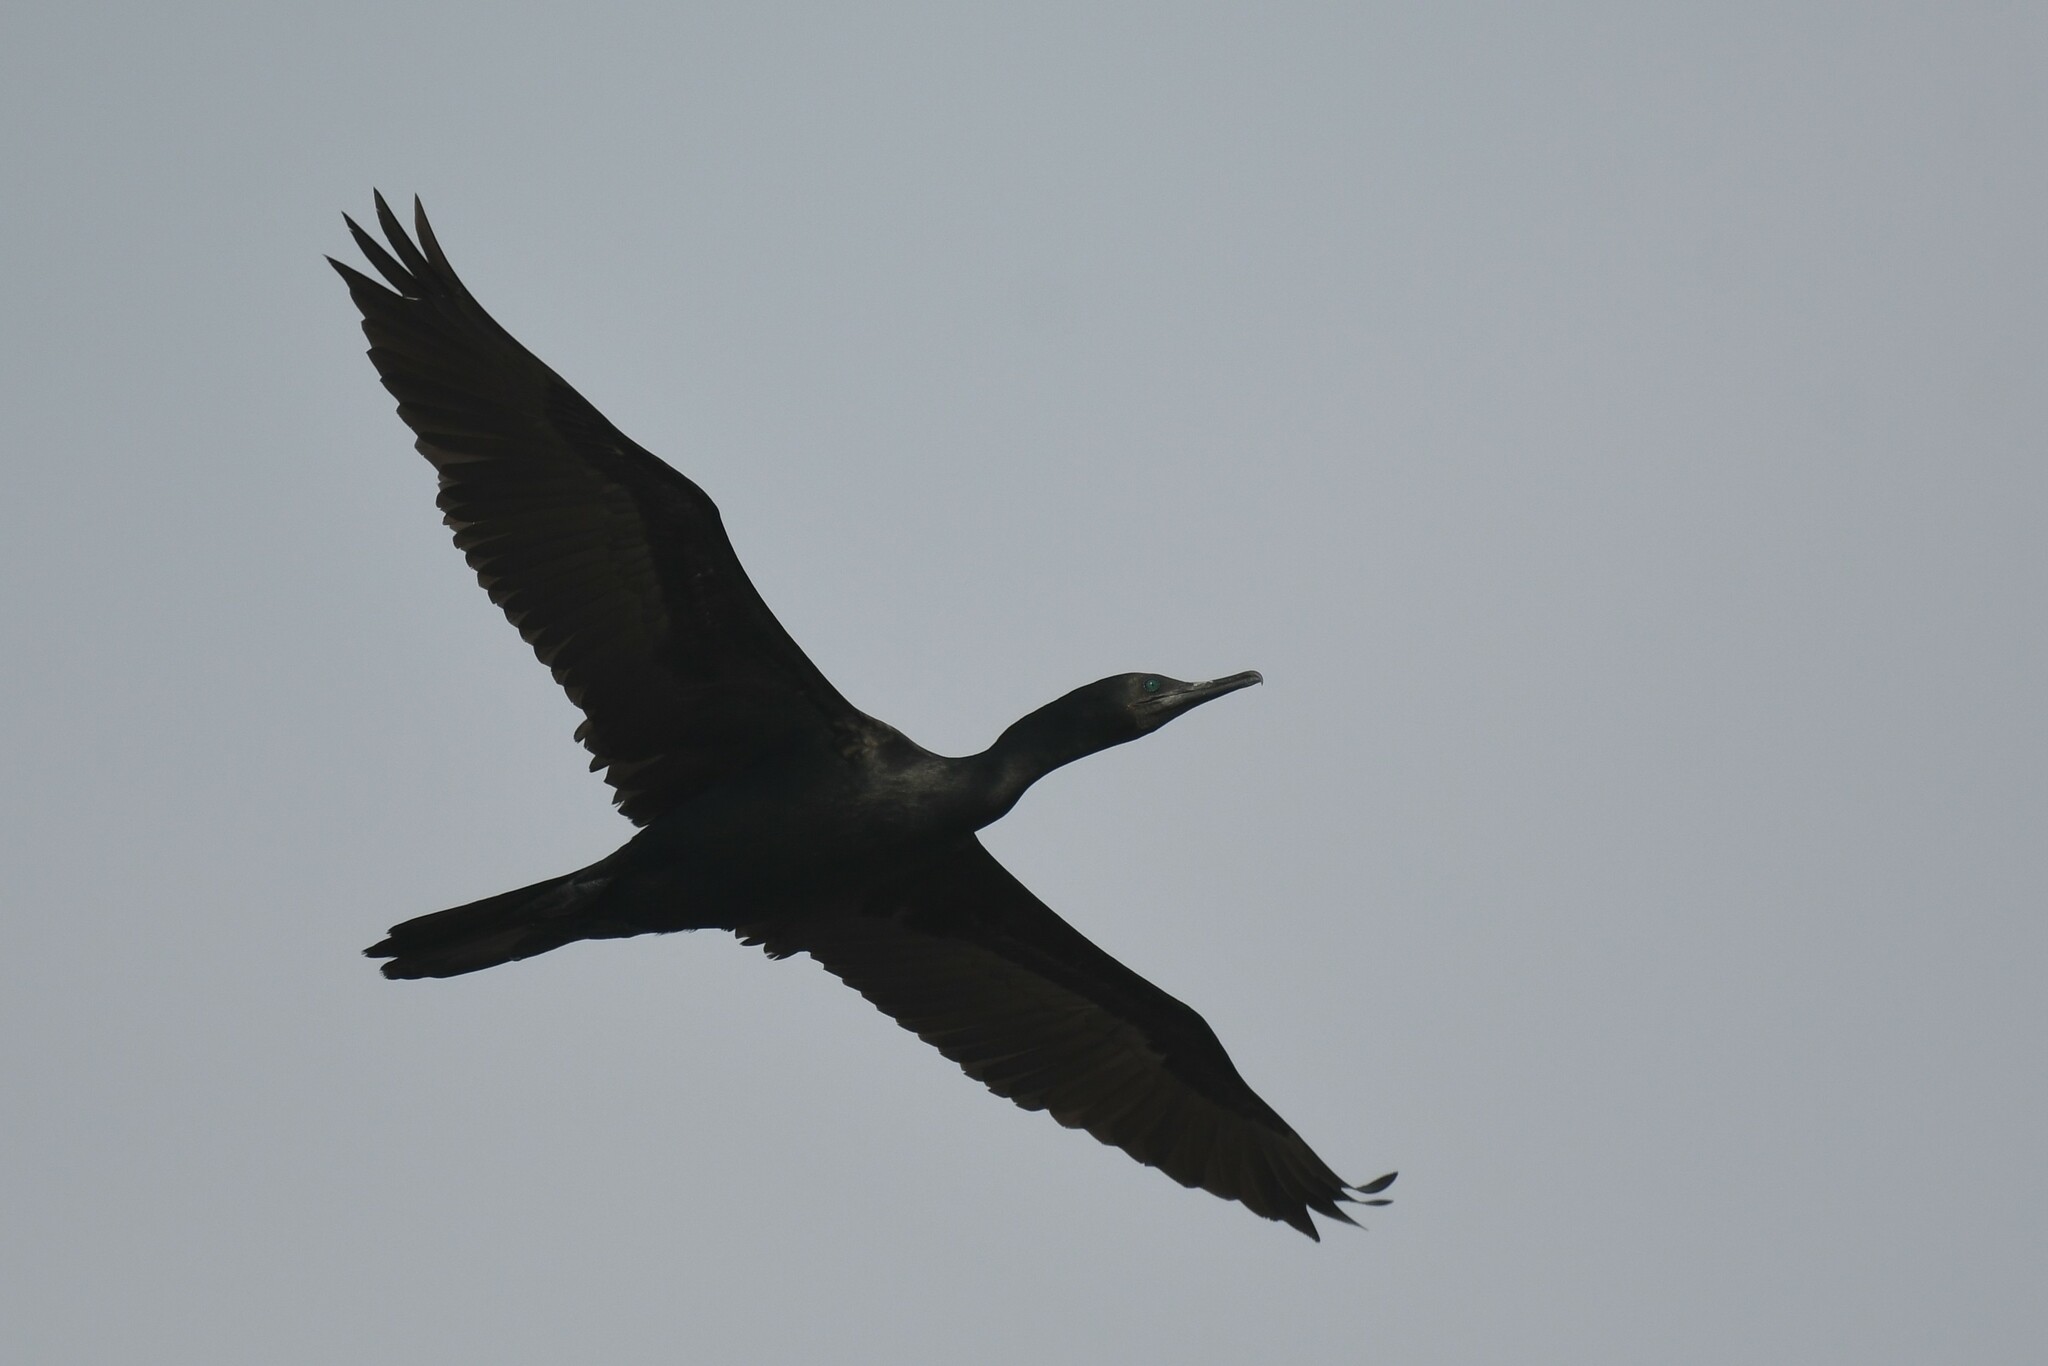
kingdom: Animalia
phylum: Chordata
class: Aves
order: Suliformes
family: Phalacrocoracidae
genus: Phalacrocorax
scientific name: Phalacrocorax fuscicollis
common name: Indian cormorant
